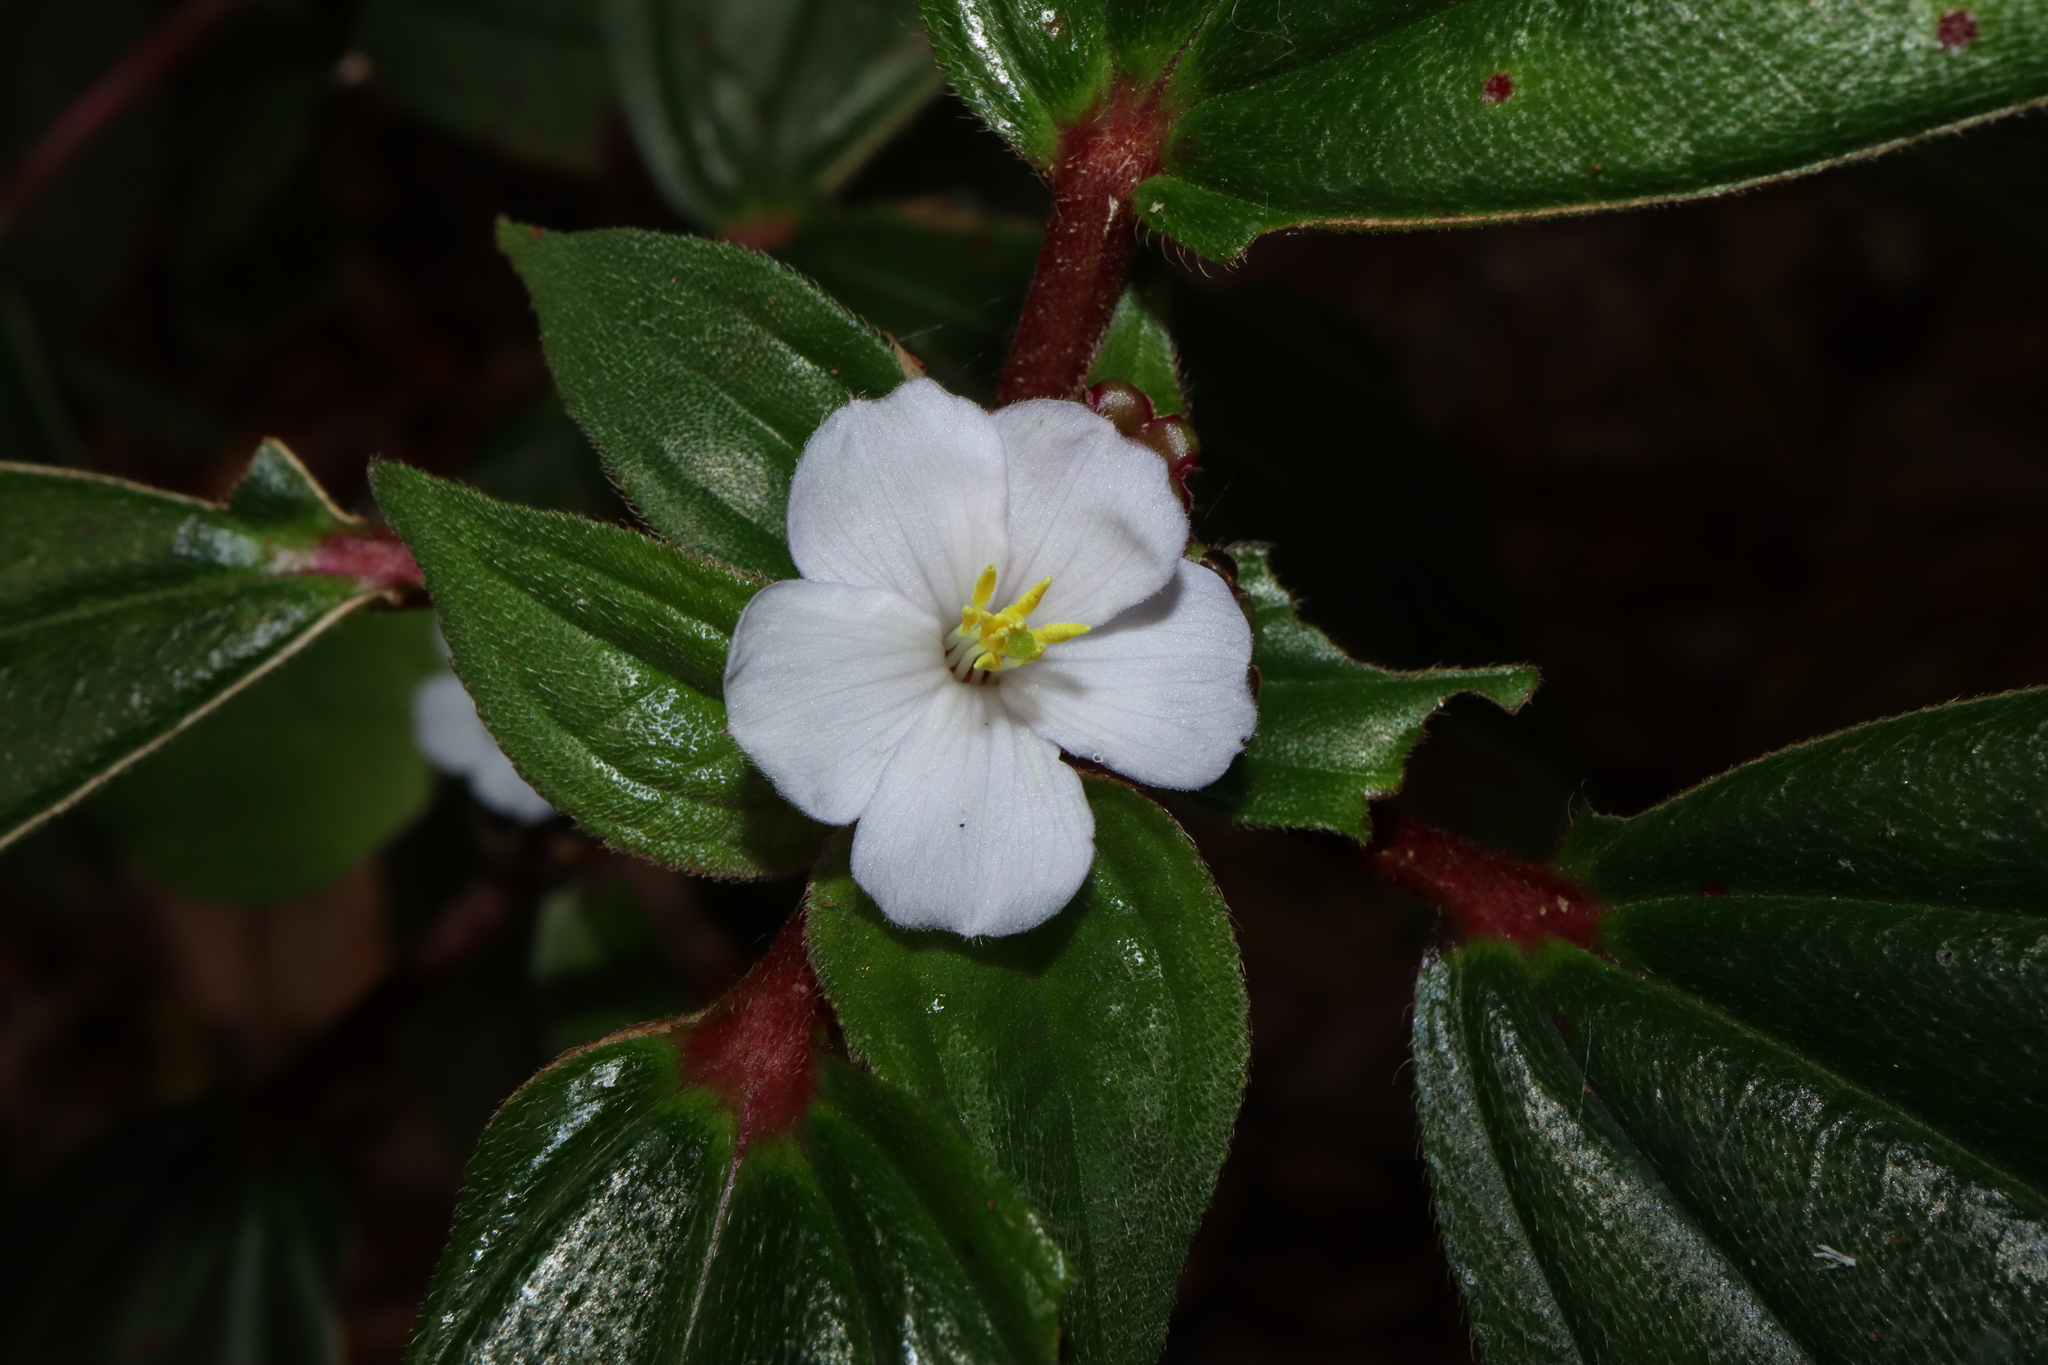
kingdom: Plantae
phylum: Tracheophyta
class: Magnoliopsida
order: Myrtales
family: Melastomataceae
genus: Tristemma
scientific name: Tristemma mauritianum
